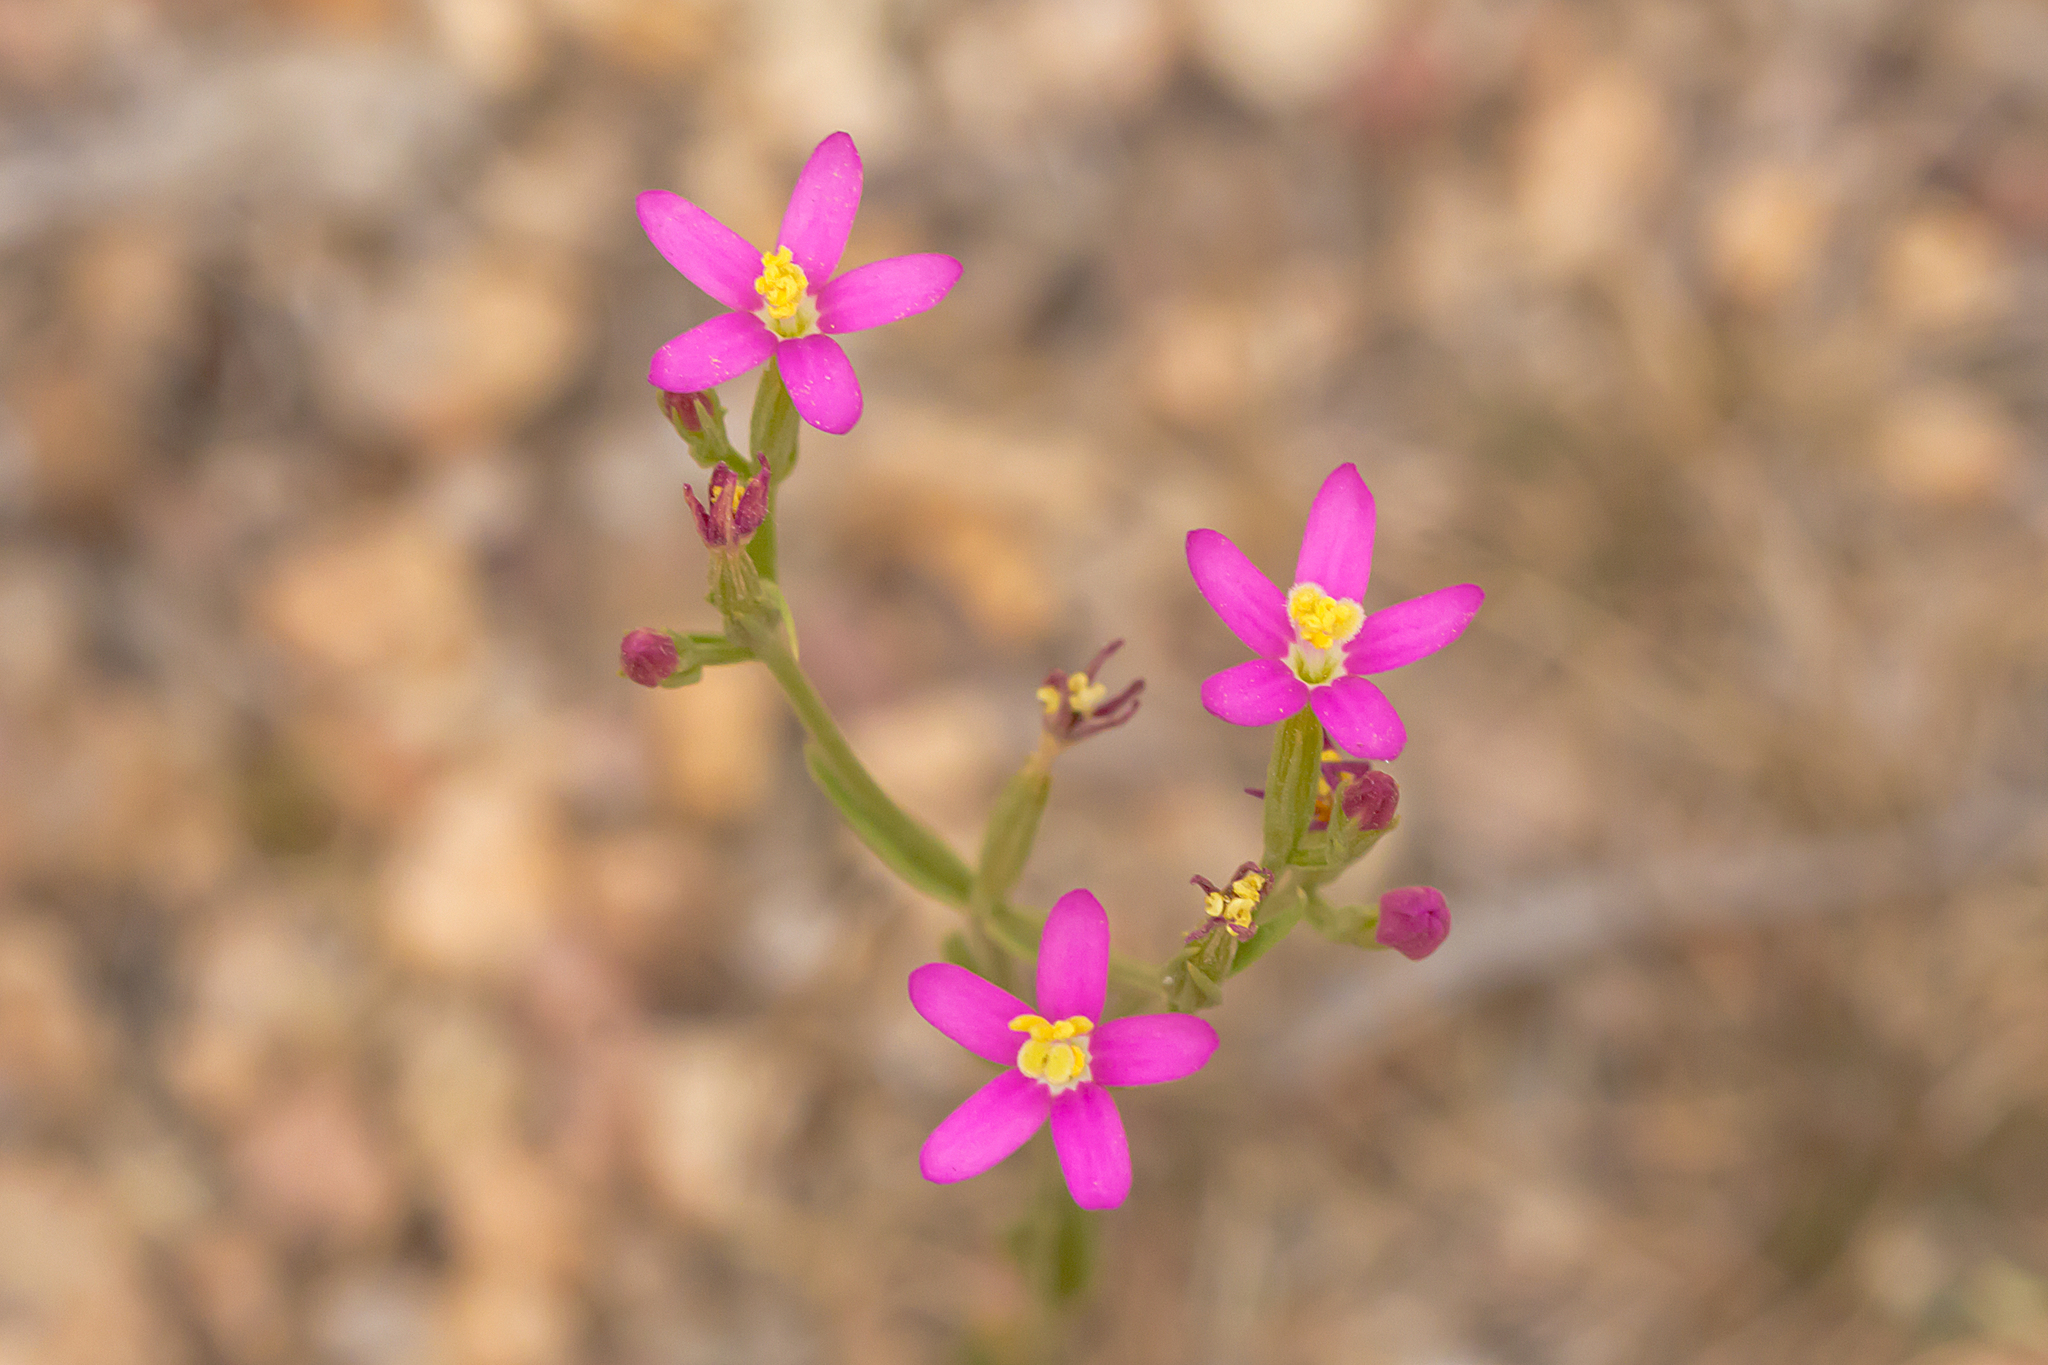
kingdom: Plantae
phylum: Tracheophyta
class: Magnoliopsida
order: Gentianales
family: Gentianaceae
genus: Centaurium
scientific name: Centaurium tenuiflorum
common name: Slender centaury
